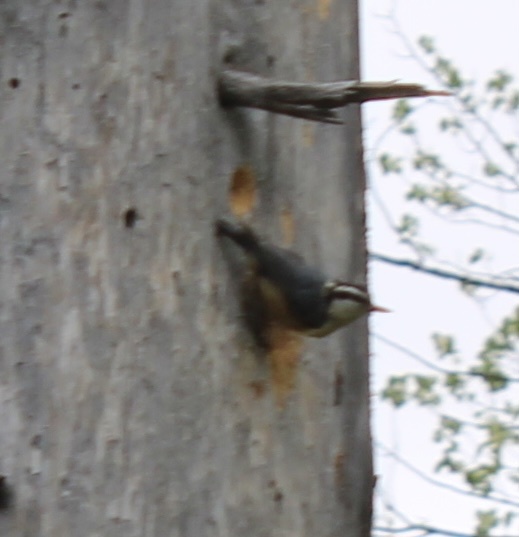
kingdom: Animalia
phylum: Chordata
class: Aves
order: Passeriformes
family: Sittidae
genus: Sitta
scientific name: Sitta canadensis
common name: Red-breasted nuthatch
